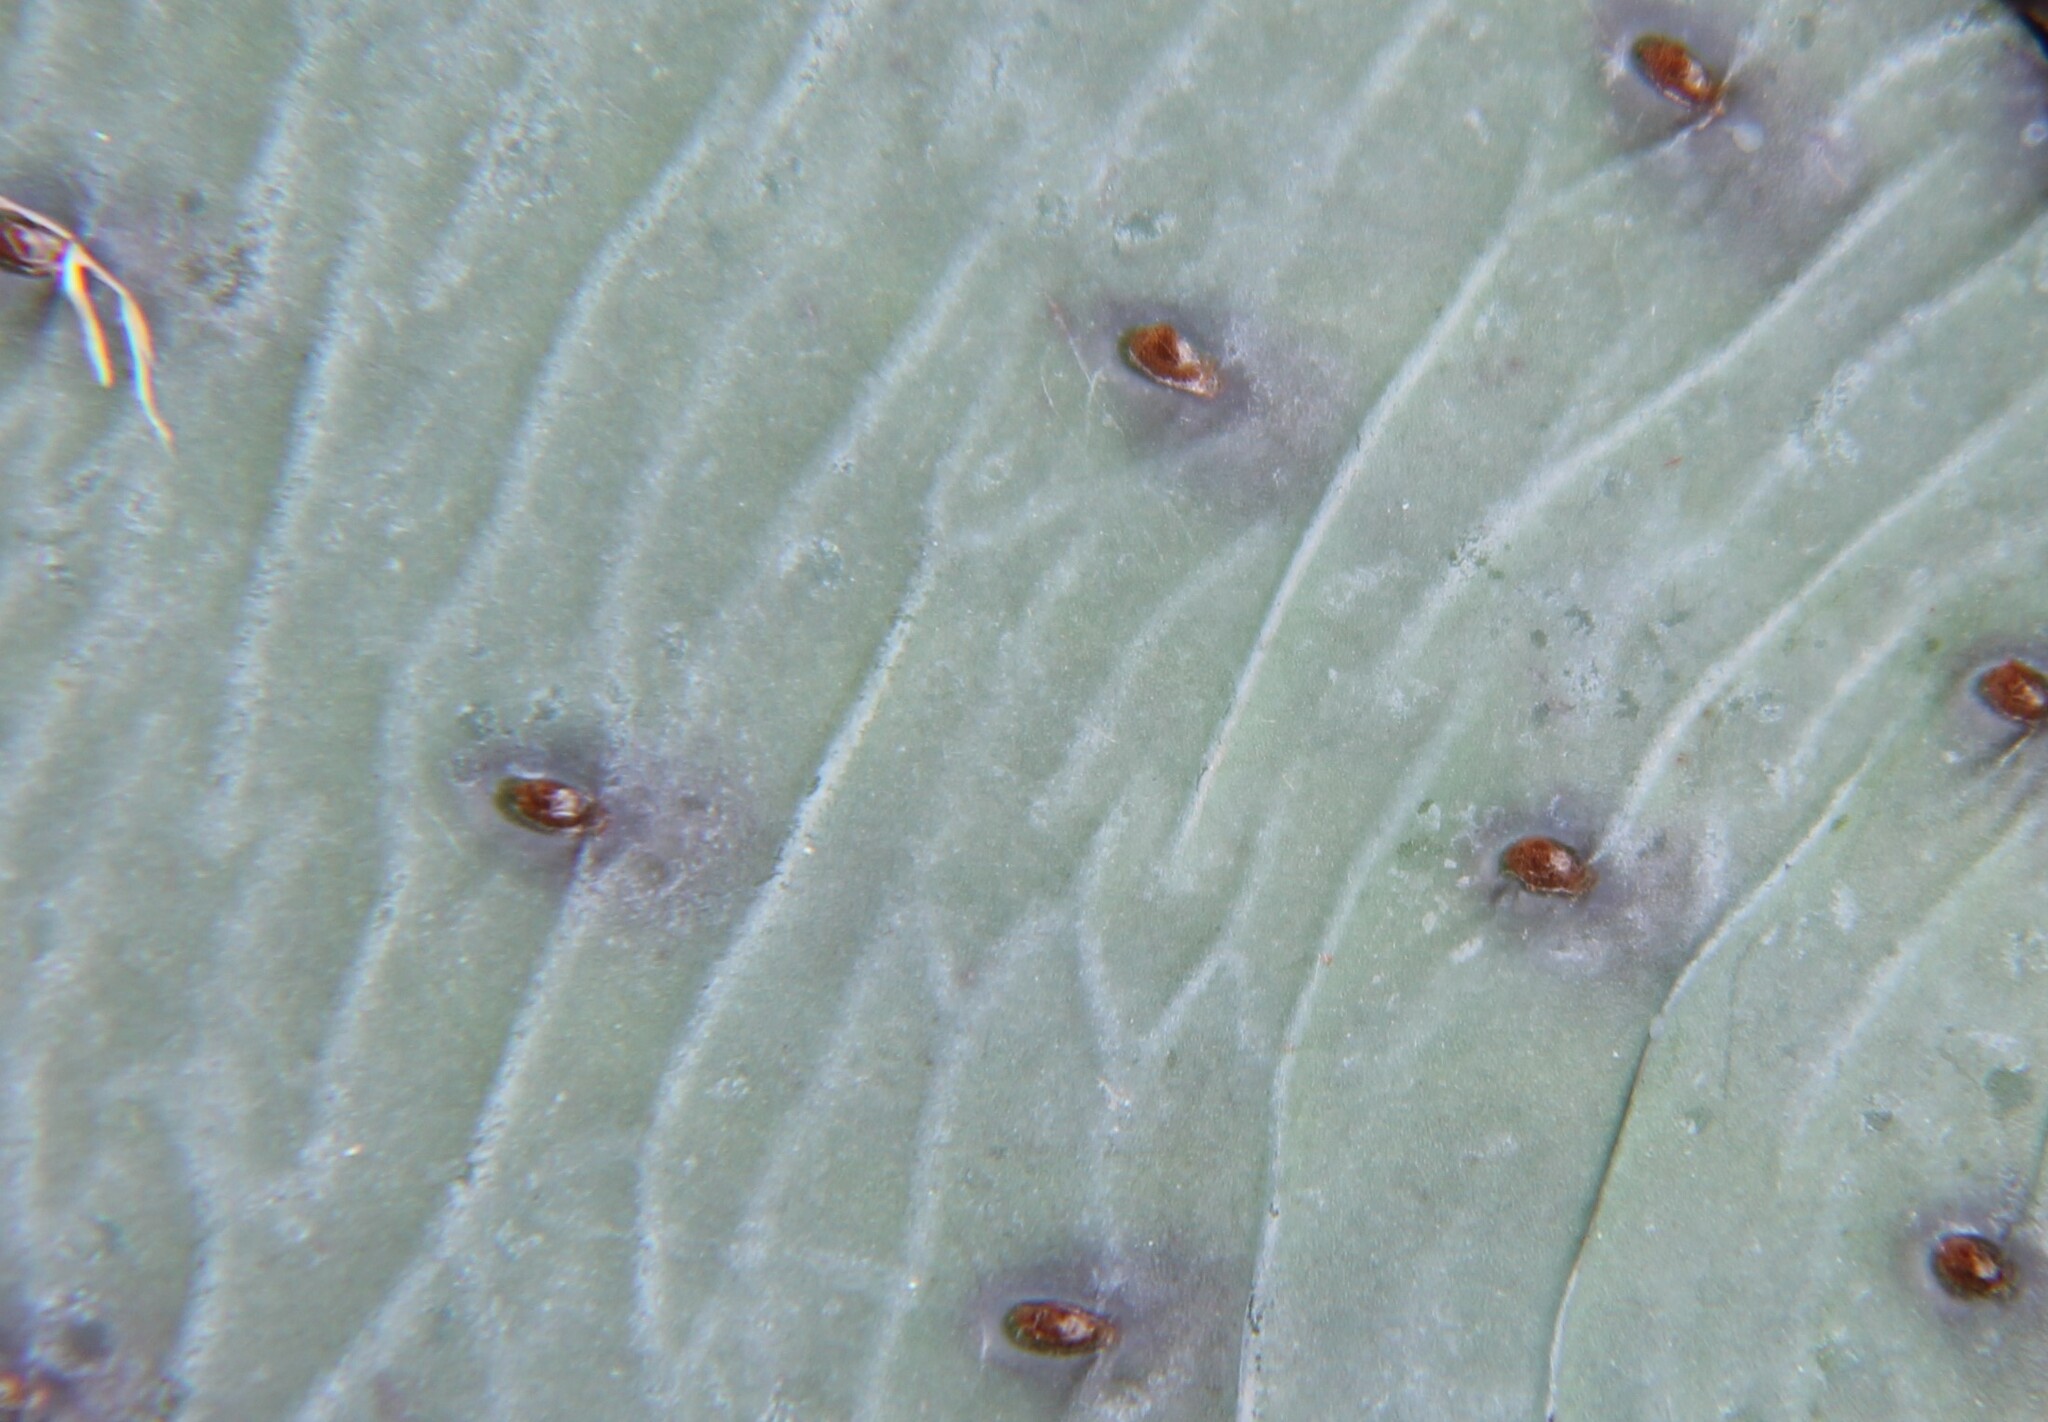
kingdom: Plantae
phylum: Tracheophyta
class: Magnoliopsida
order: Caryophyllales
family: Cactaceae
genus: Opuntia
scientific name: Opuntia humifusa
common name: Eastern prickly-pear
